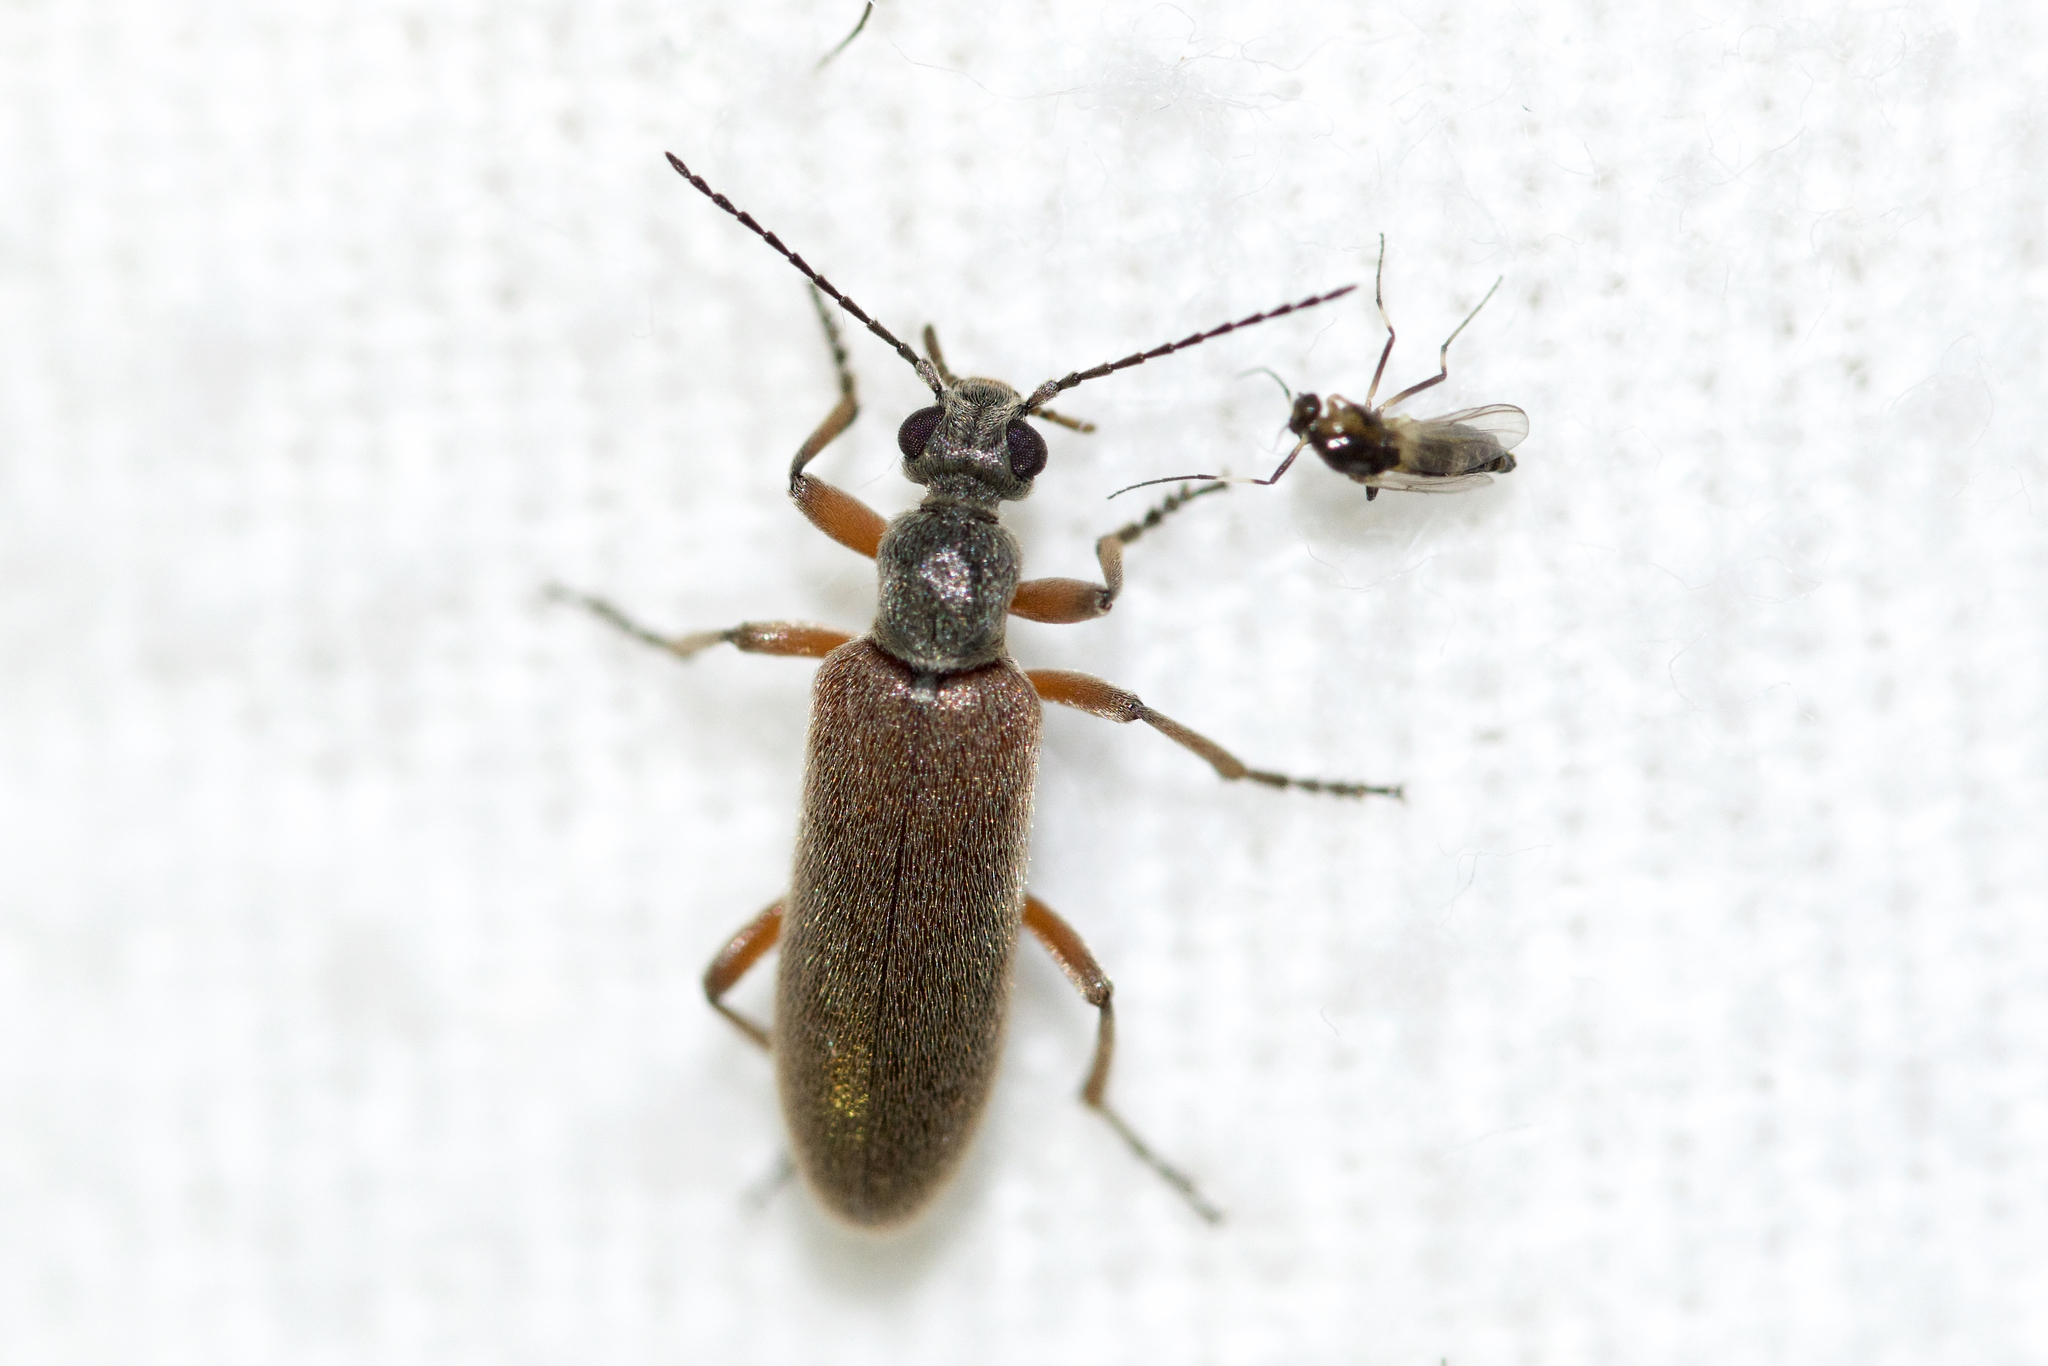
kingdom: Animalia
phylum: Arthropoda
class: Insecta
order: Coleoptera
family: Anthicidae
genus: Stereopalpus
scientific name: Stereopalpus vestitus
